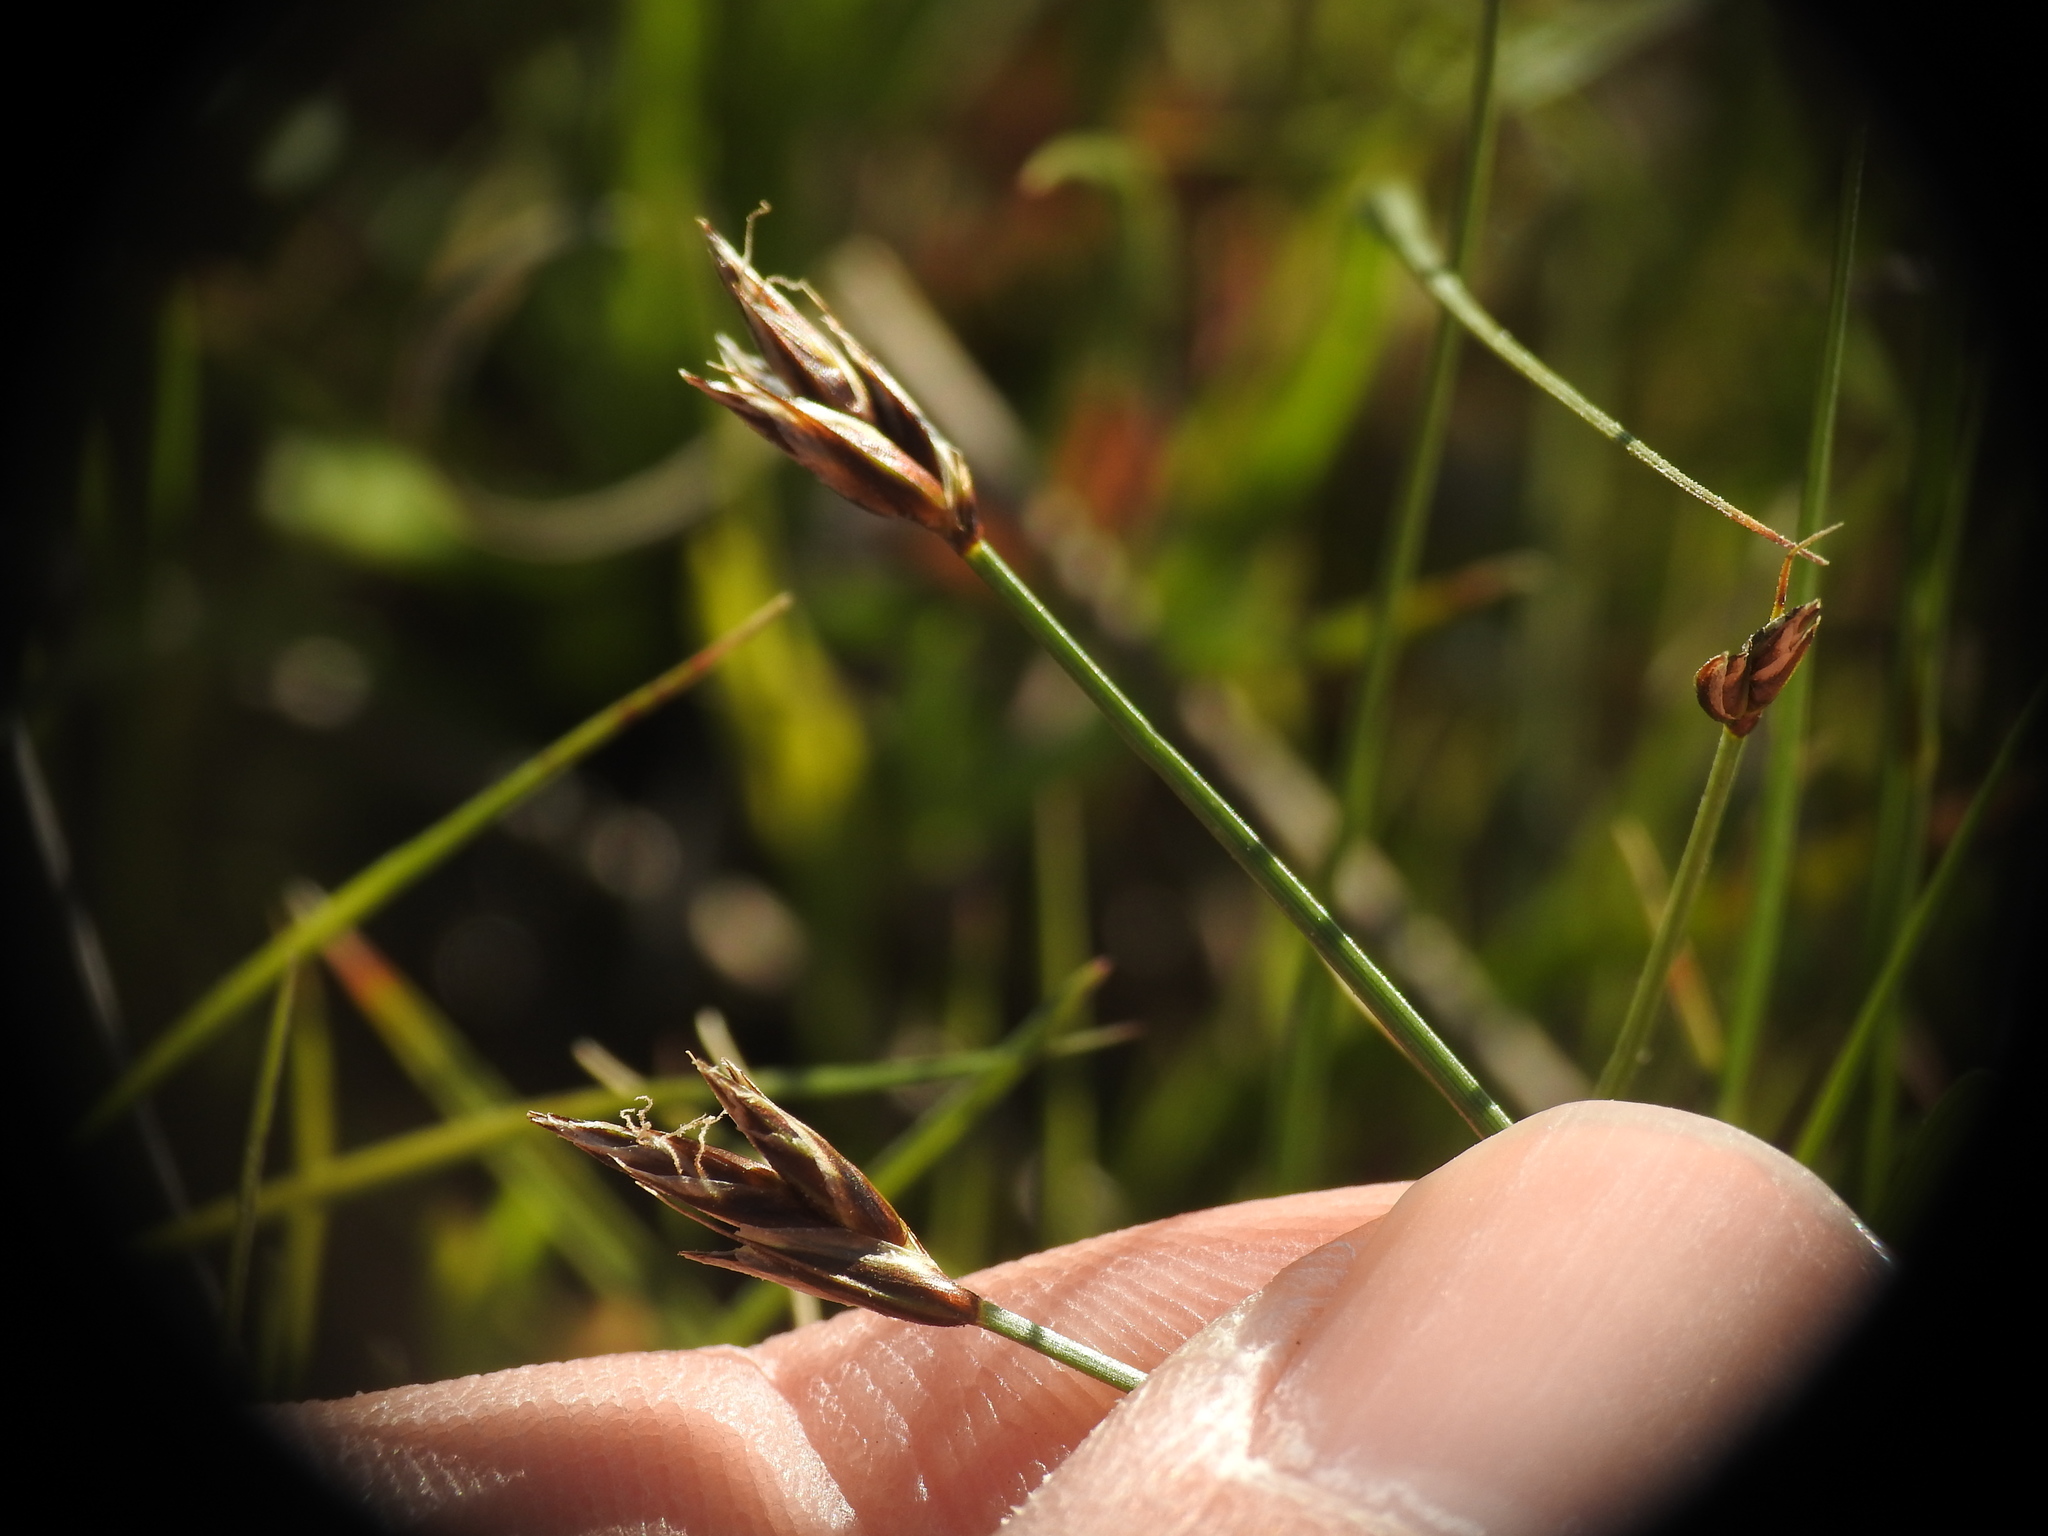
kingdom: Plantae
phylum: Tracheophyta
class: Liliopsida
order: Poales
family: Cyperaceae
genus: Carex
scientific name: Carex praecox
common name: Early sedge
